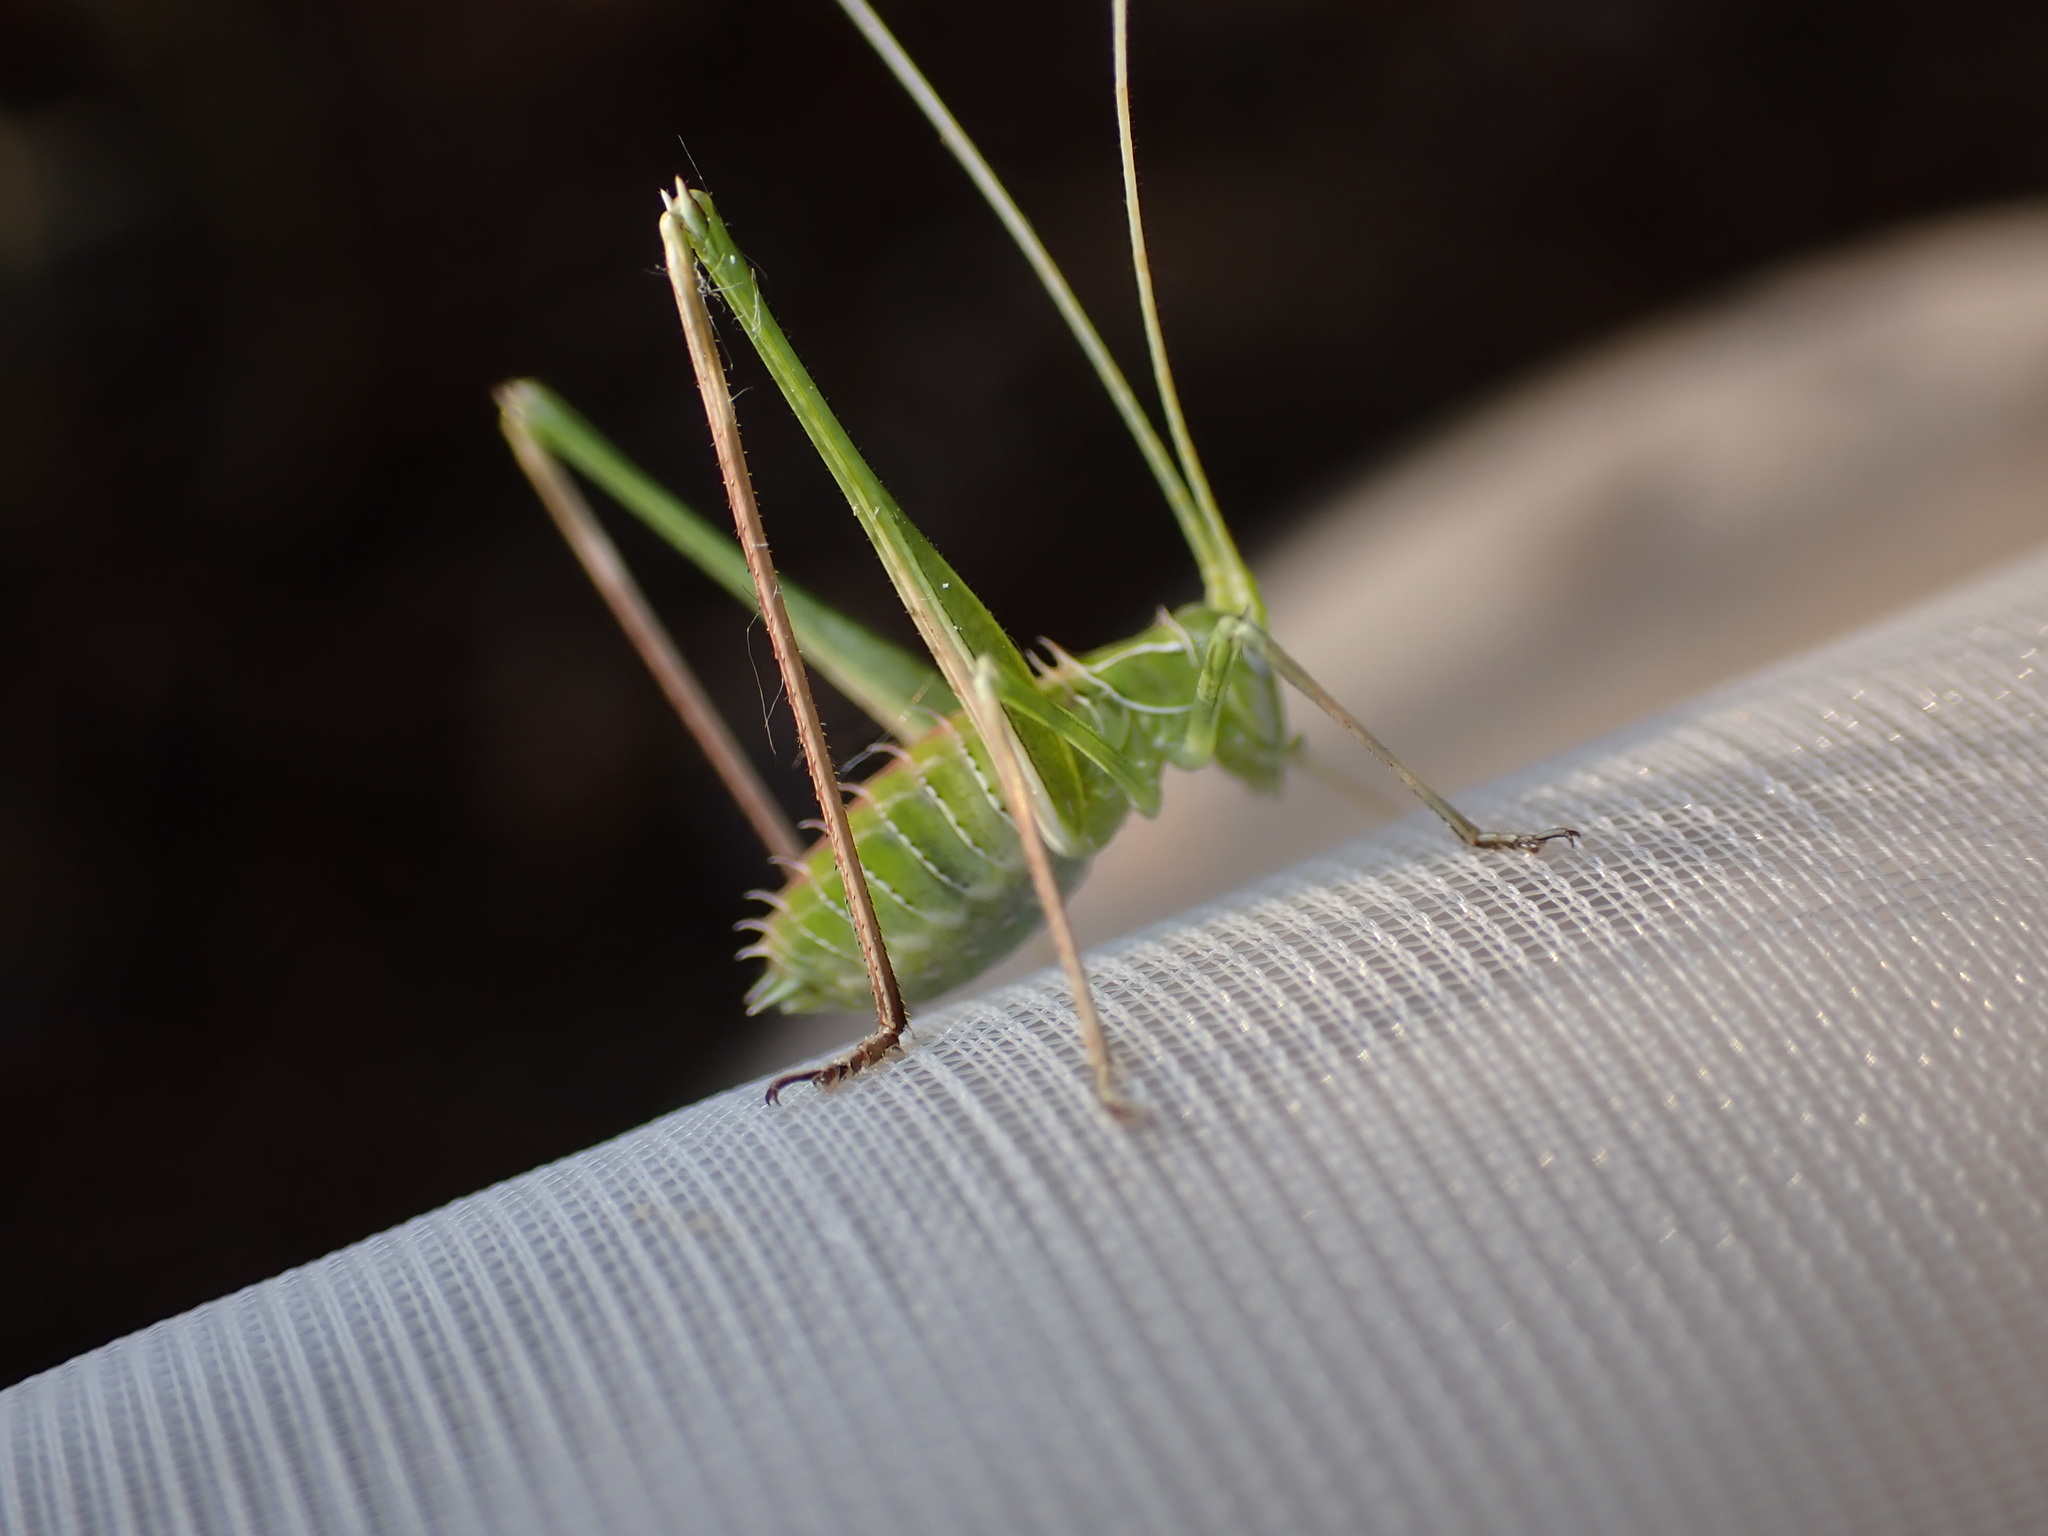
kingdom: Animalia
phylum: Arthropoda
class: Insecta
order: Orthoptera
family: Tettigoniidae
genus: Tylopsis
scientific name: Tylopsis lilifolia
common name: Lily bush-cricket
